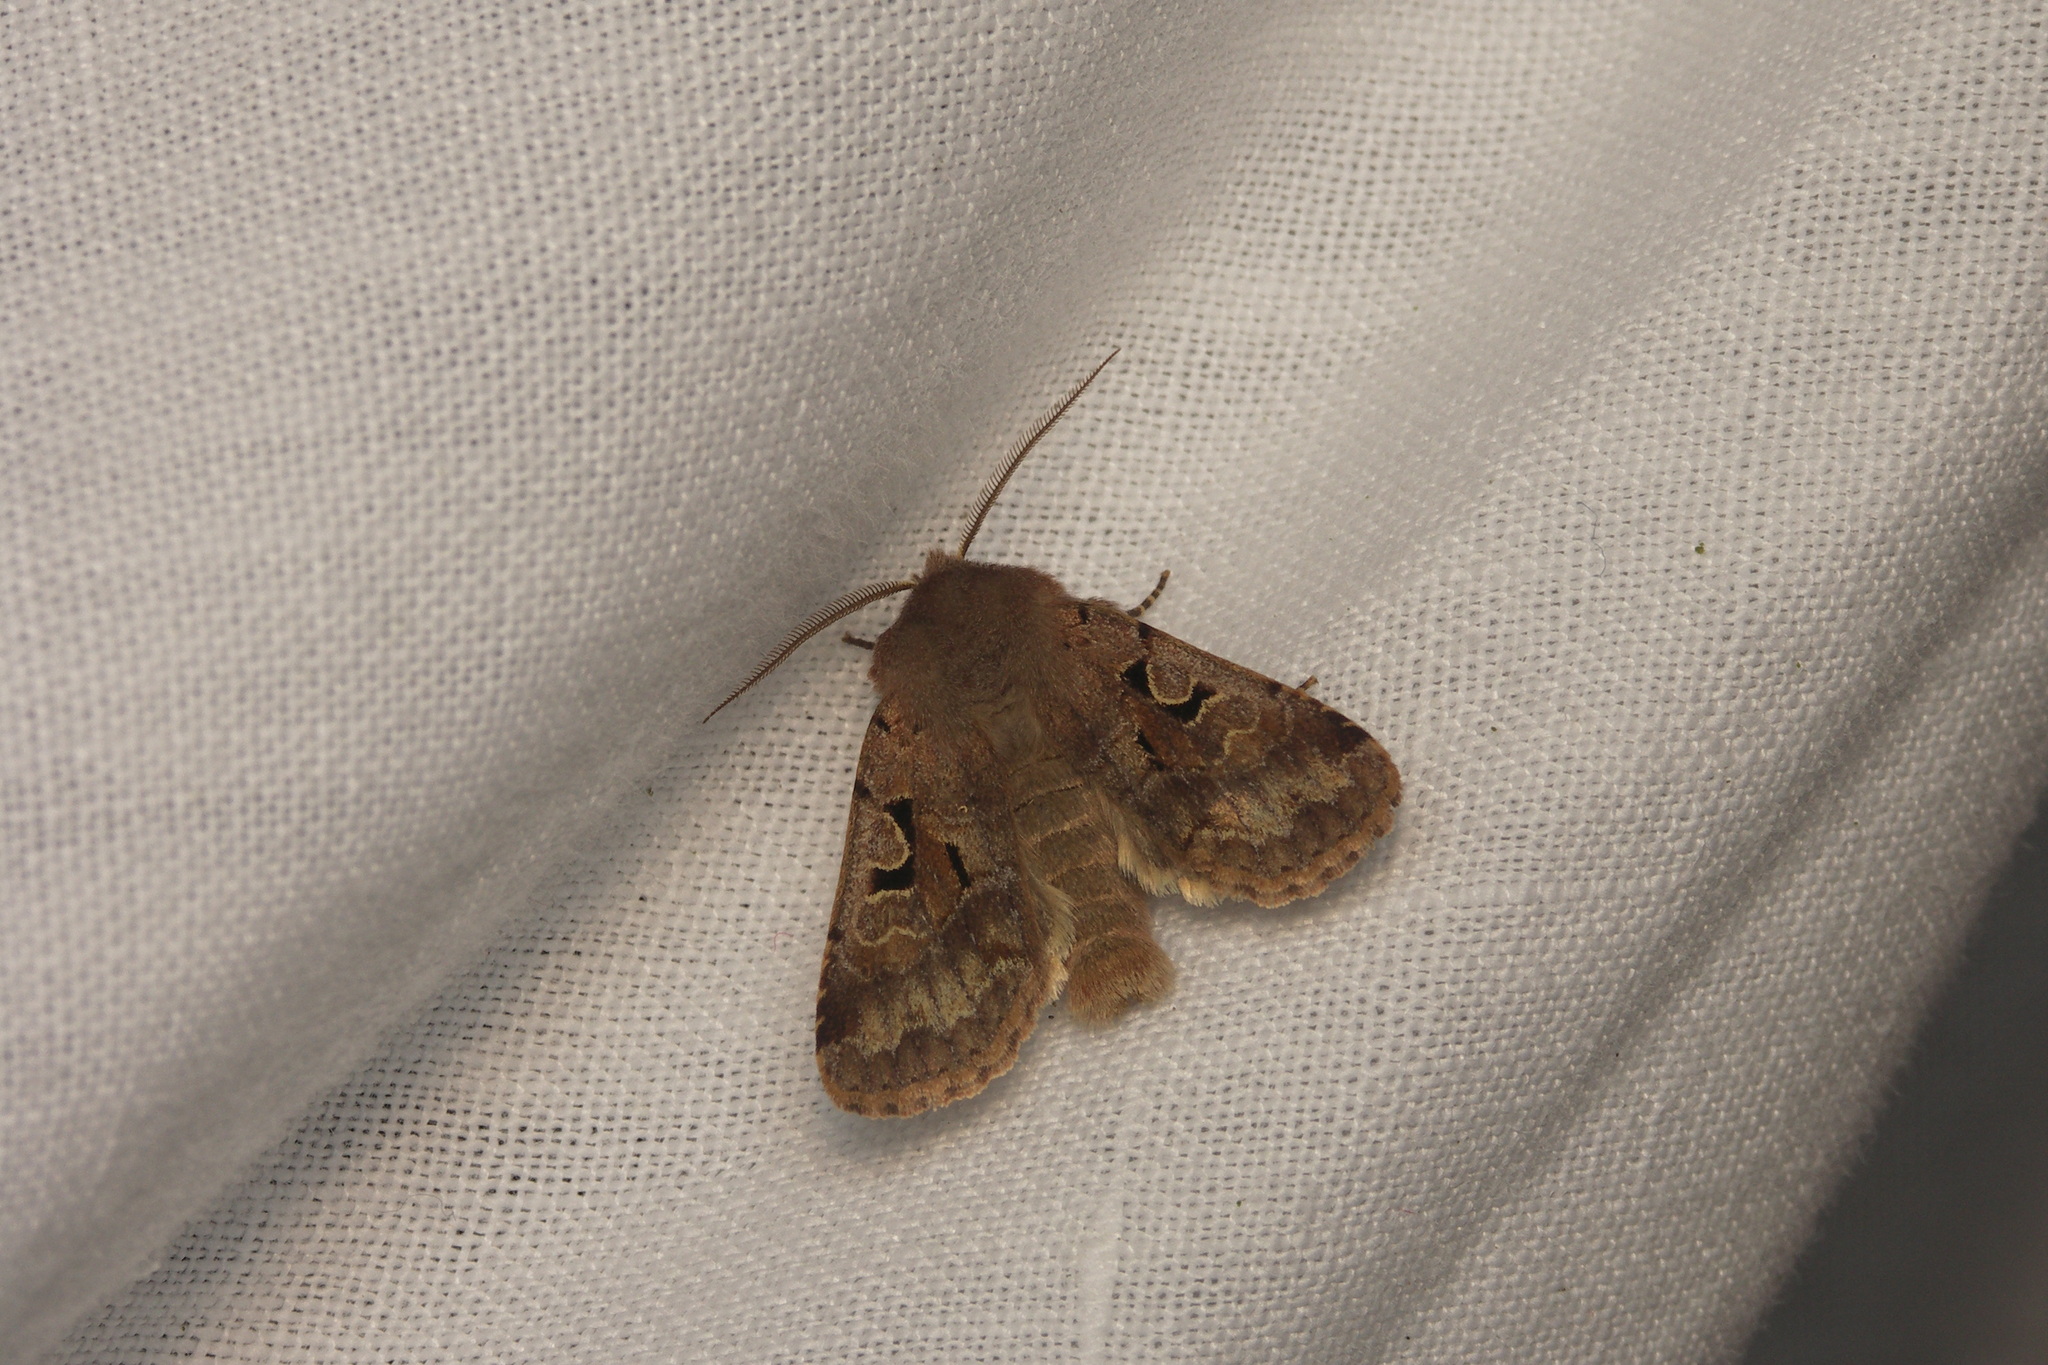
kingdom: Animalia
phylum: Arthropoda
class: Insecta
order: Lepidoptera
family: Noctuidae
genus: Orthosia
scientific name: Orthosia gothica
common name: Hebrew character
